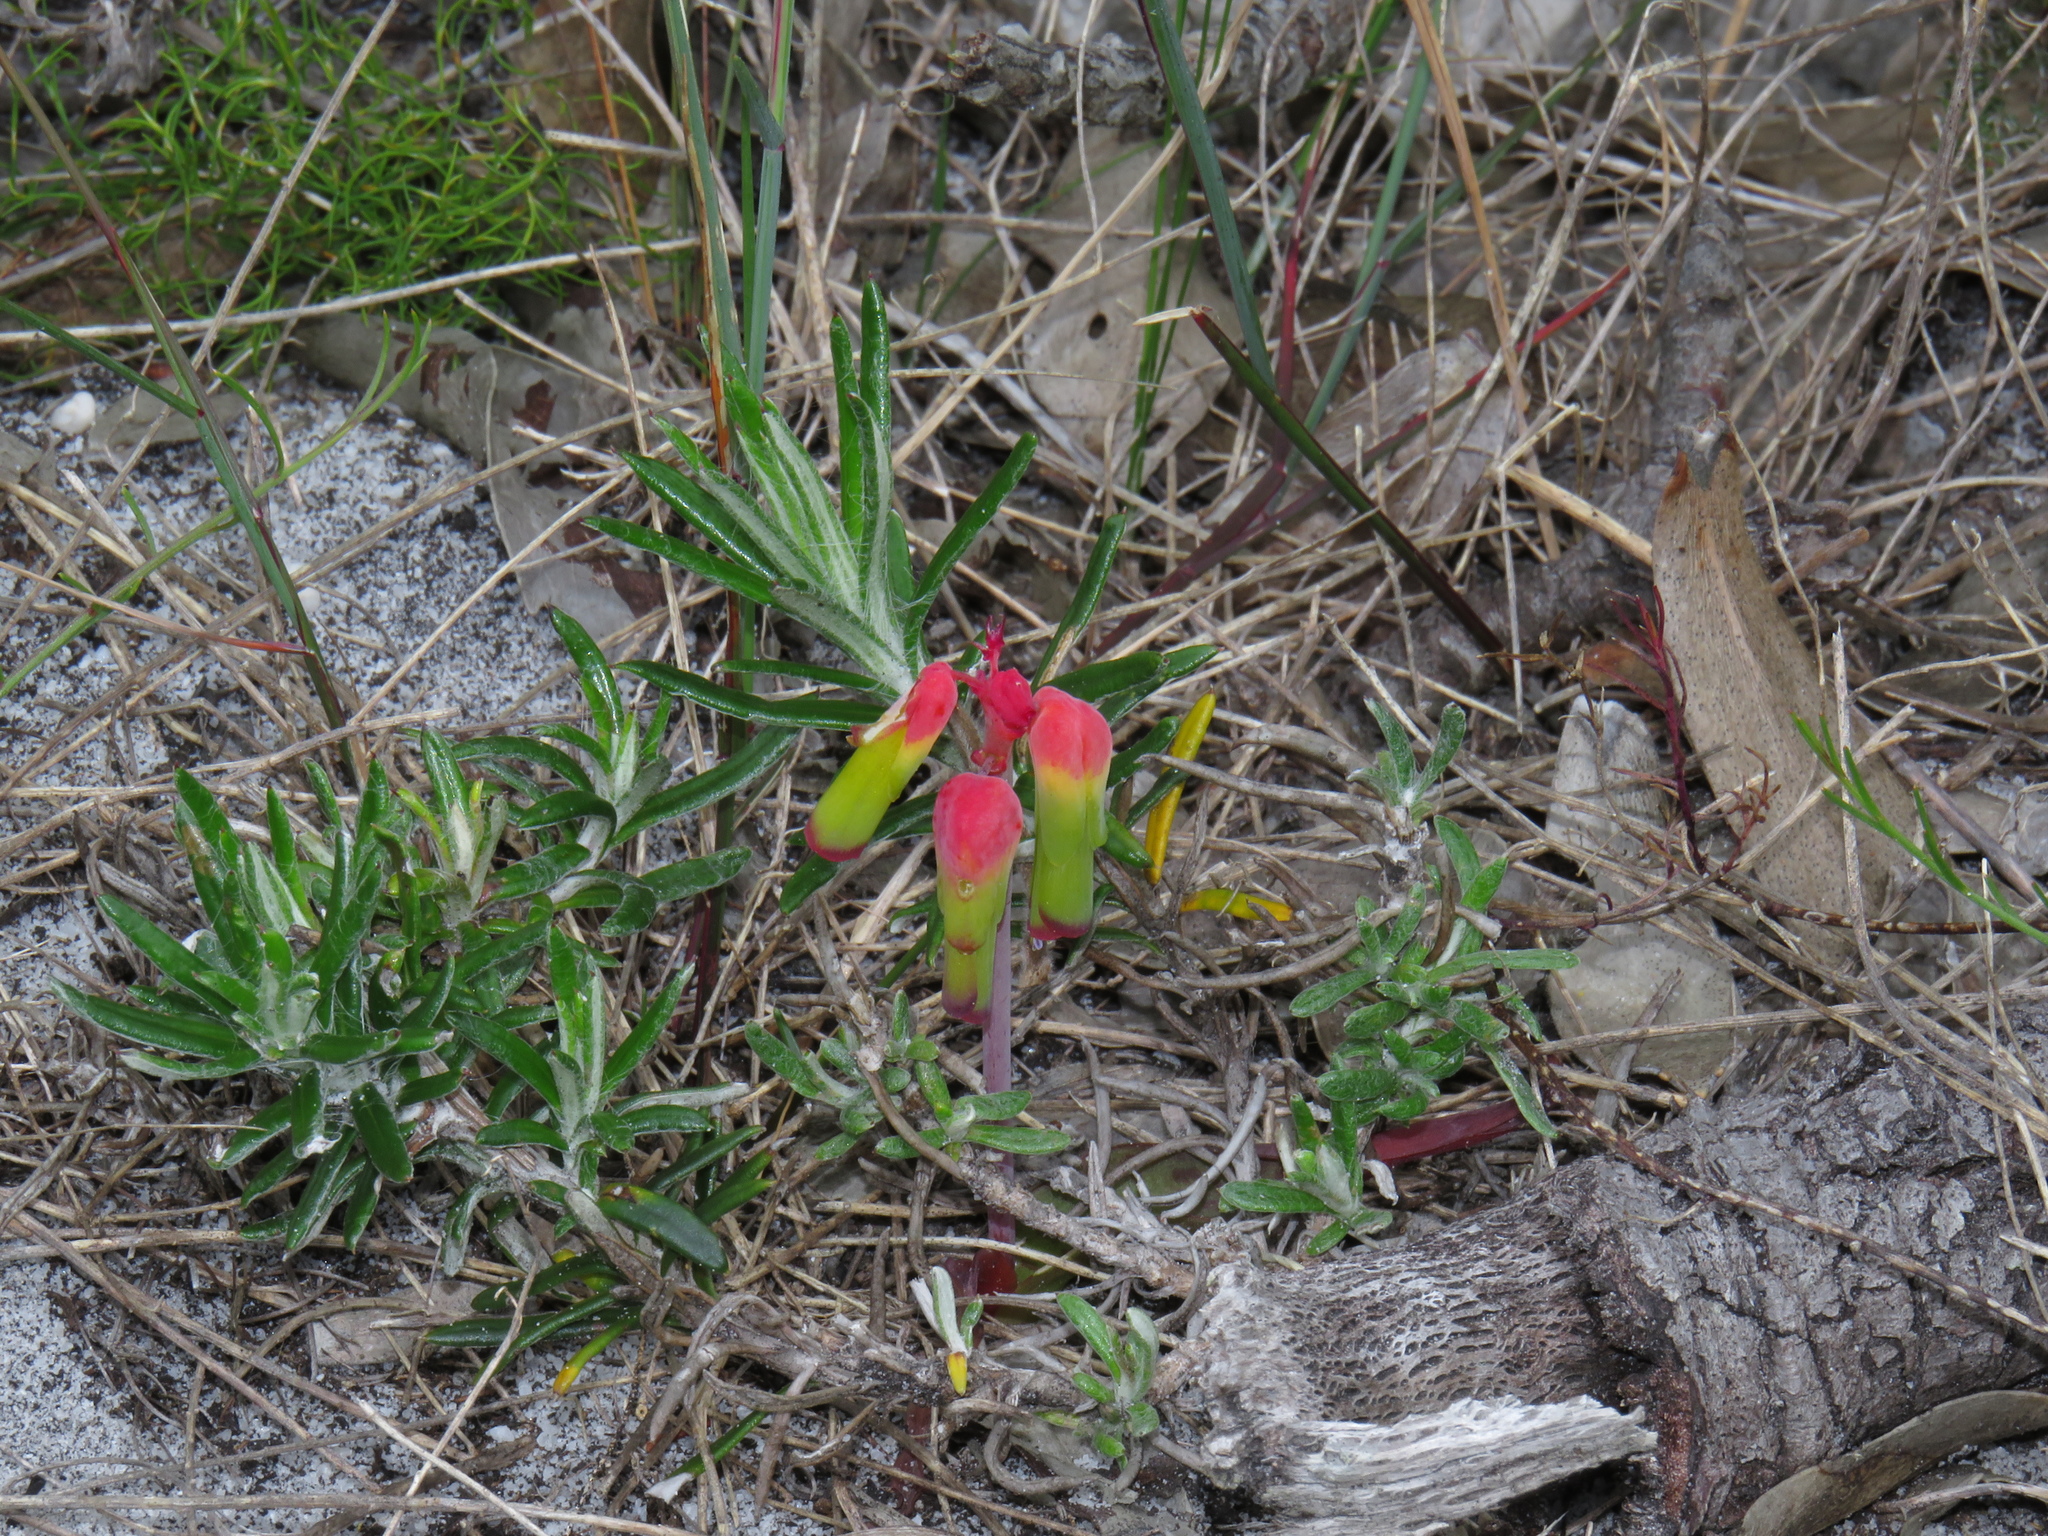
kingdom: Plantae
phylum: Tracheophyta
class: Liliopsida
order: Asparagales
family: Asparagaceae
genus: Lachenalia
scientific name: Lachenalia luteola
